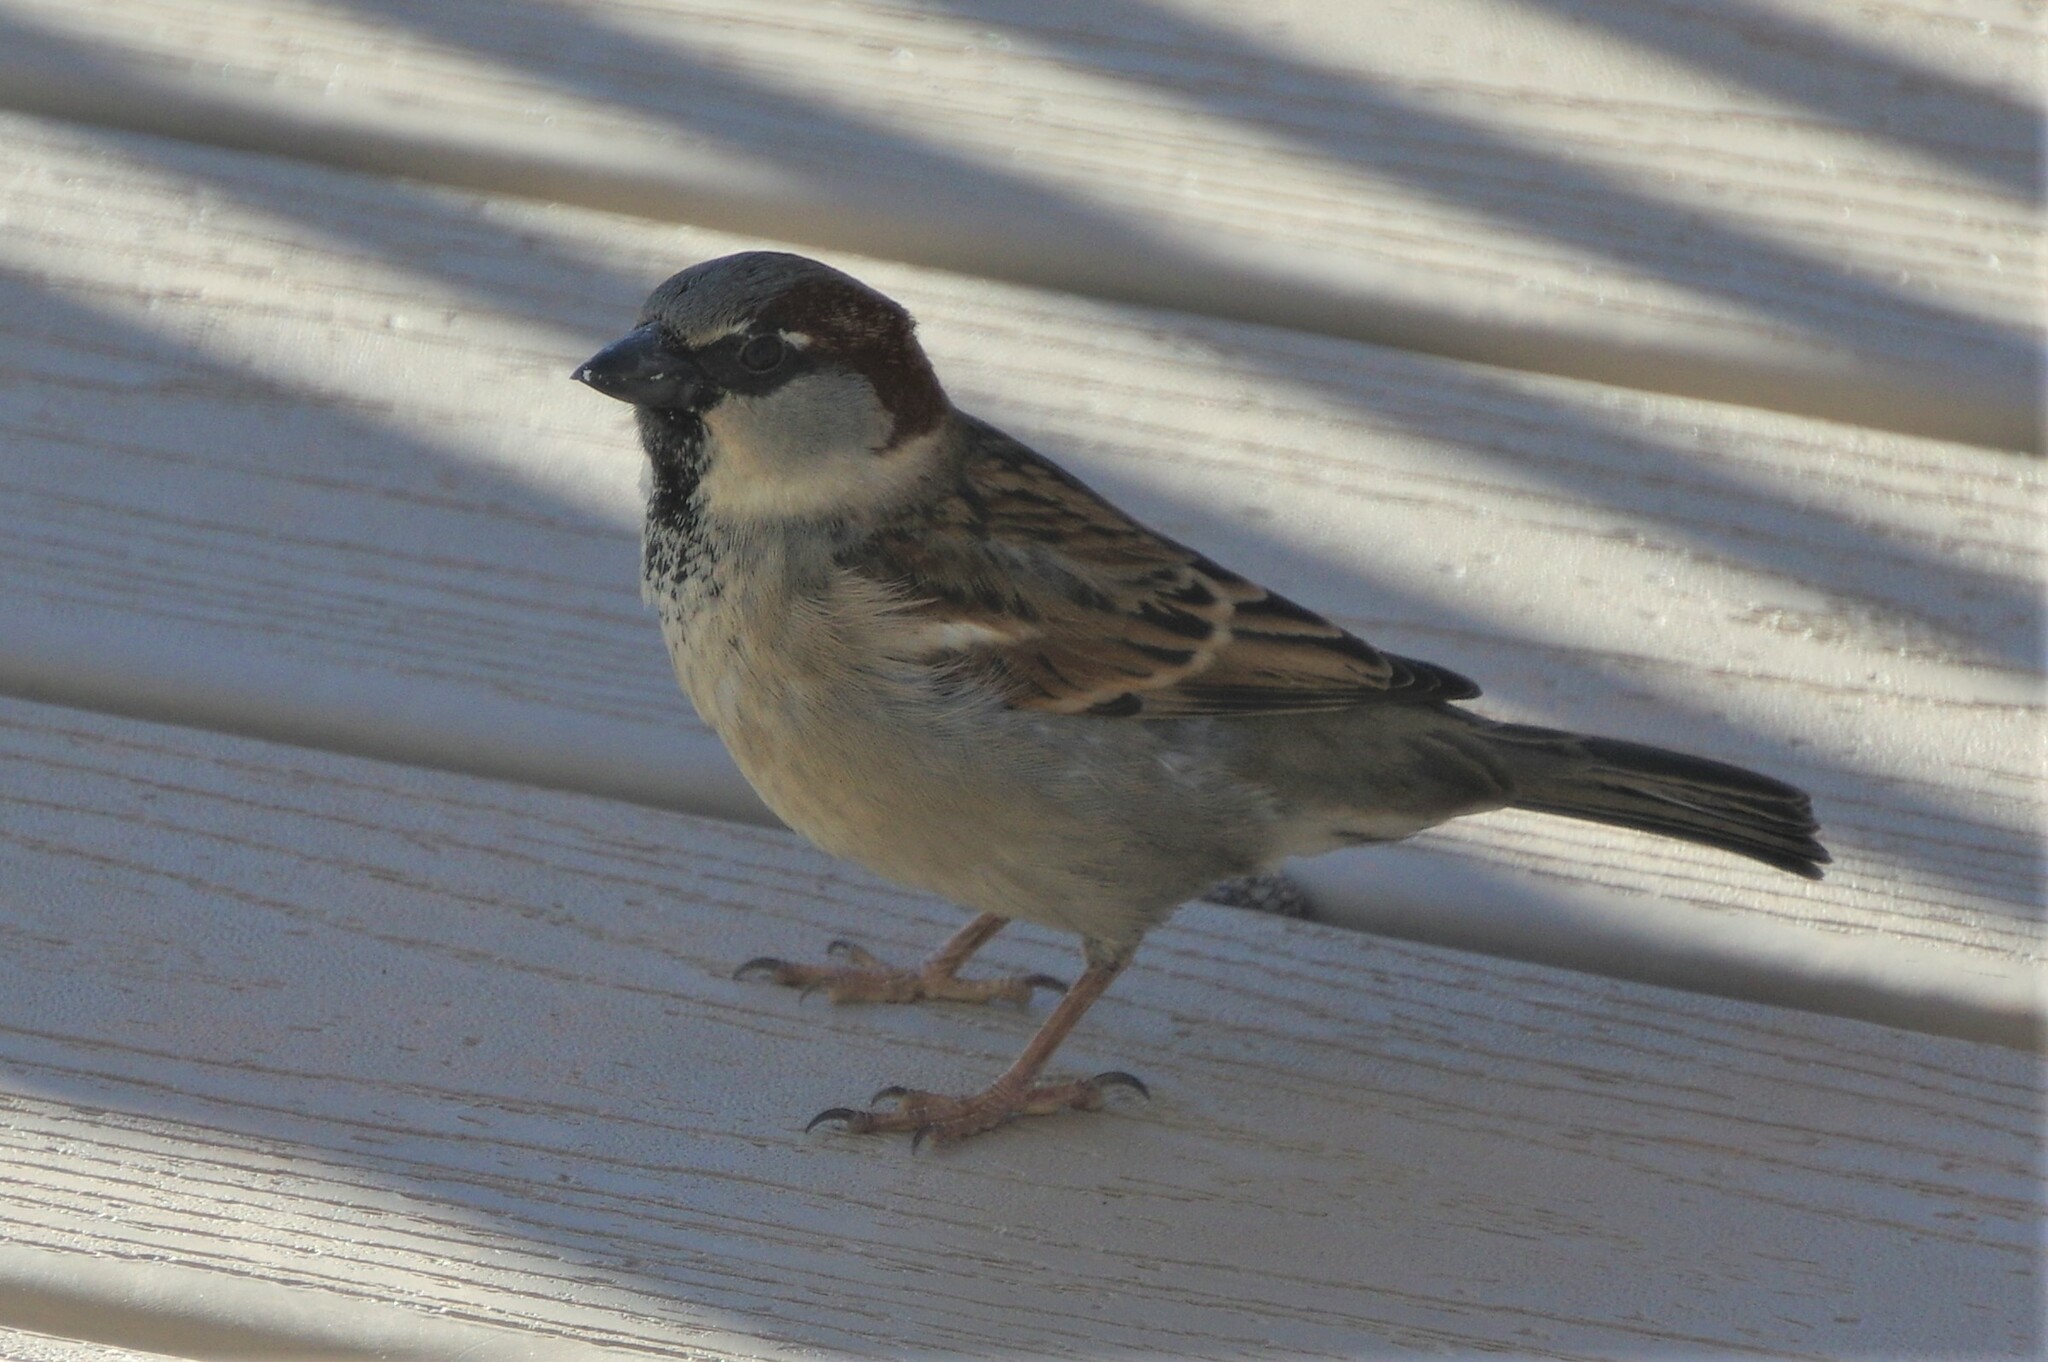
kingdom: Animalia
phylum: Chordata
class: Aves
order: Passeriformes
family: Passeridae
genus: Passer
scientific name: Passer domesticus
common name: House sparrow
